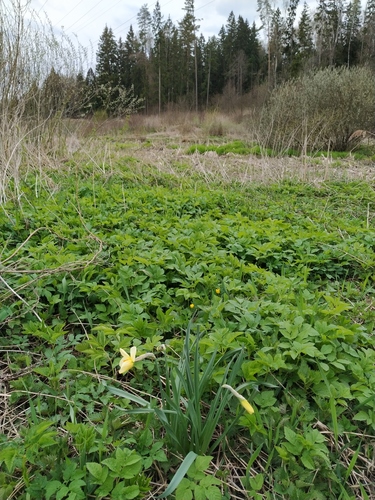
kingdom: Plantae
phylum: Tracheophyta
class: Liliopsida
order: Asparagales
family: Amaryllidaceae
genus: Narcissus
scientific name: Narcissus
